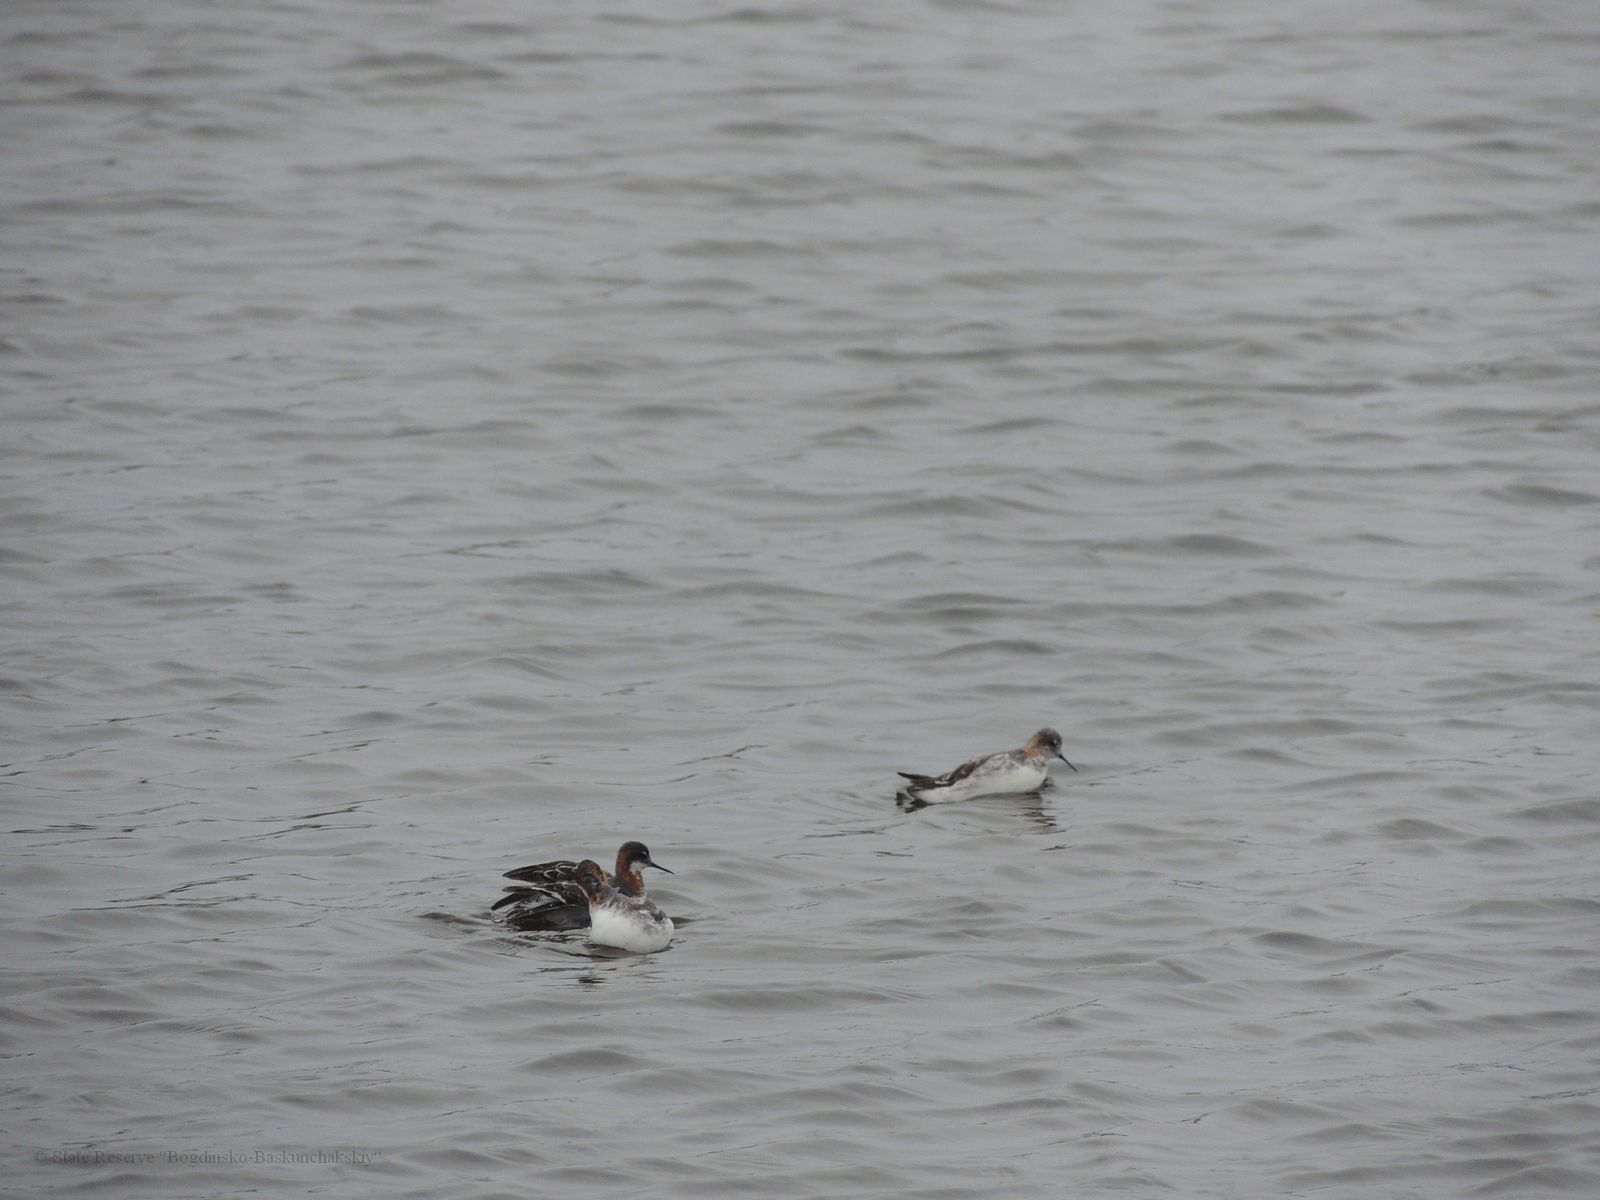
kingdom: Animalia
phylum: Chordata
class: Aves
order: Charadriiformes
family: Scolopacidae
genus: Phalaropus
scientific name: Phalaropus lobatus
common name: Red-necked phalarope
